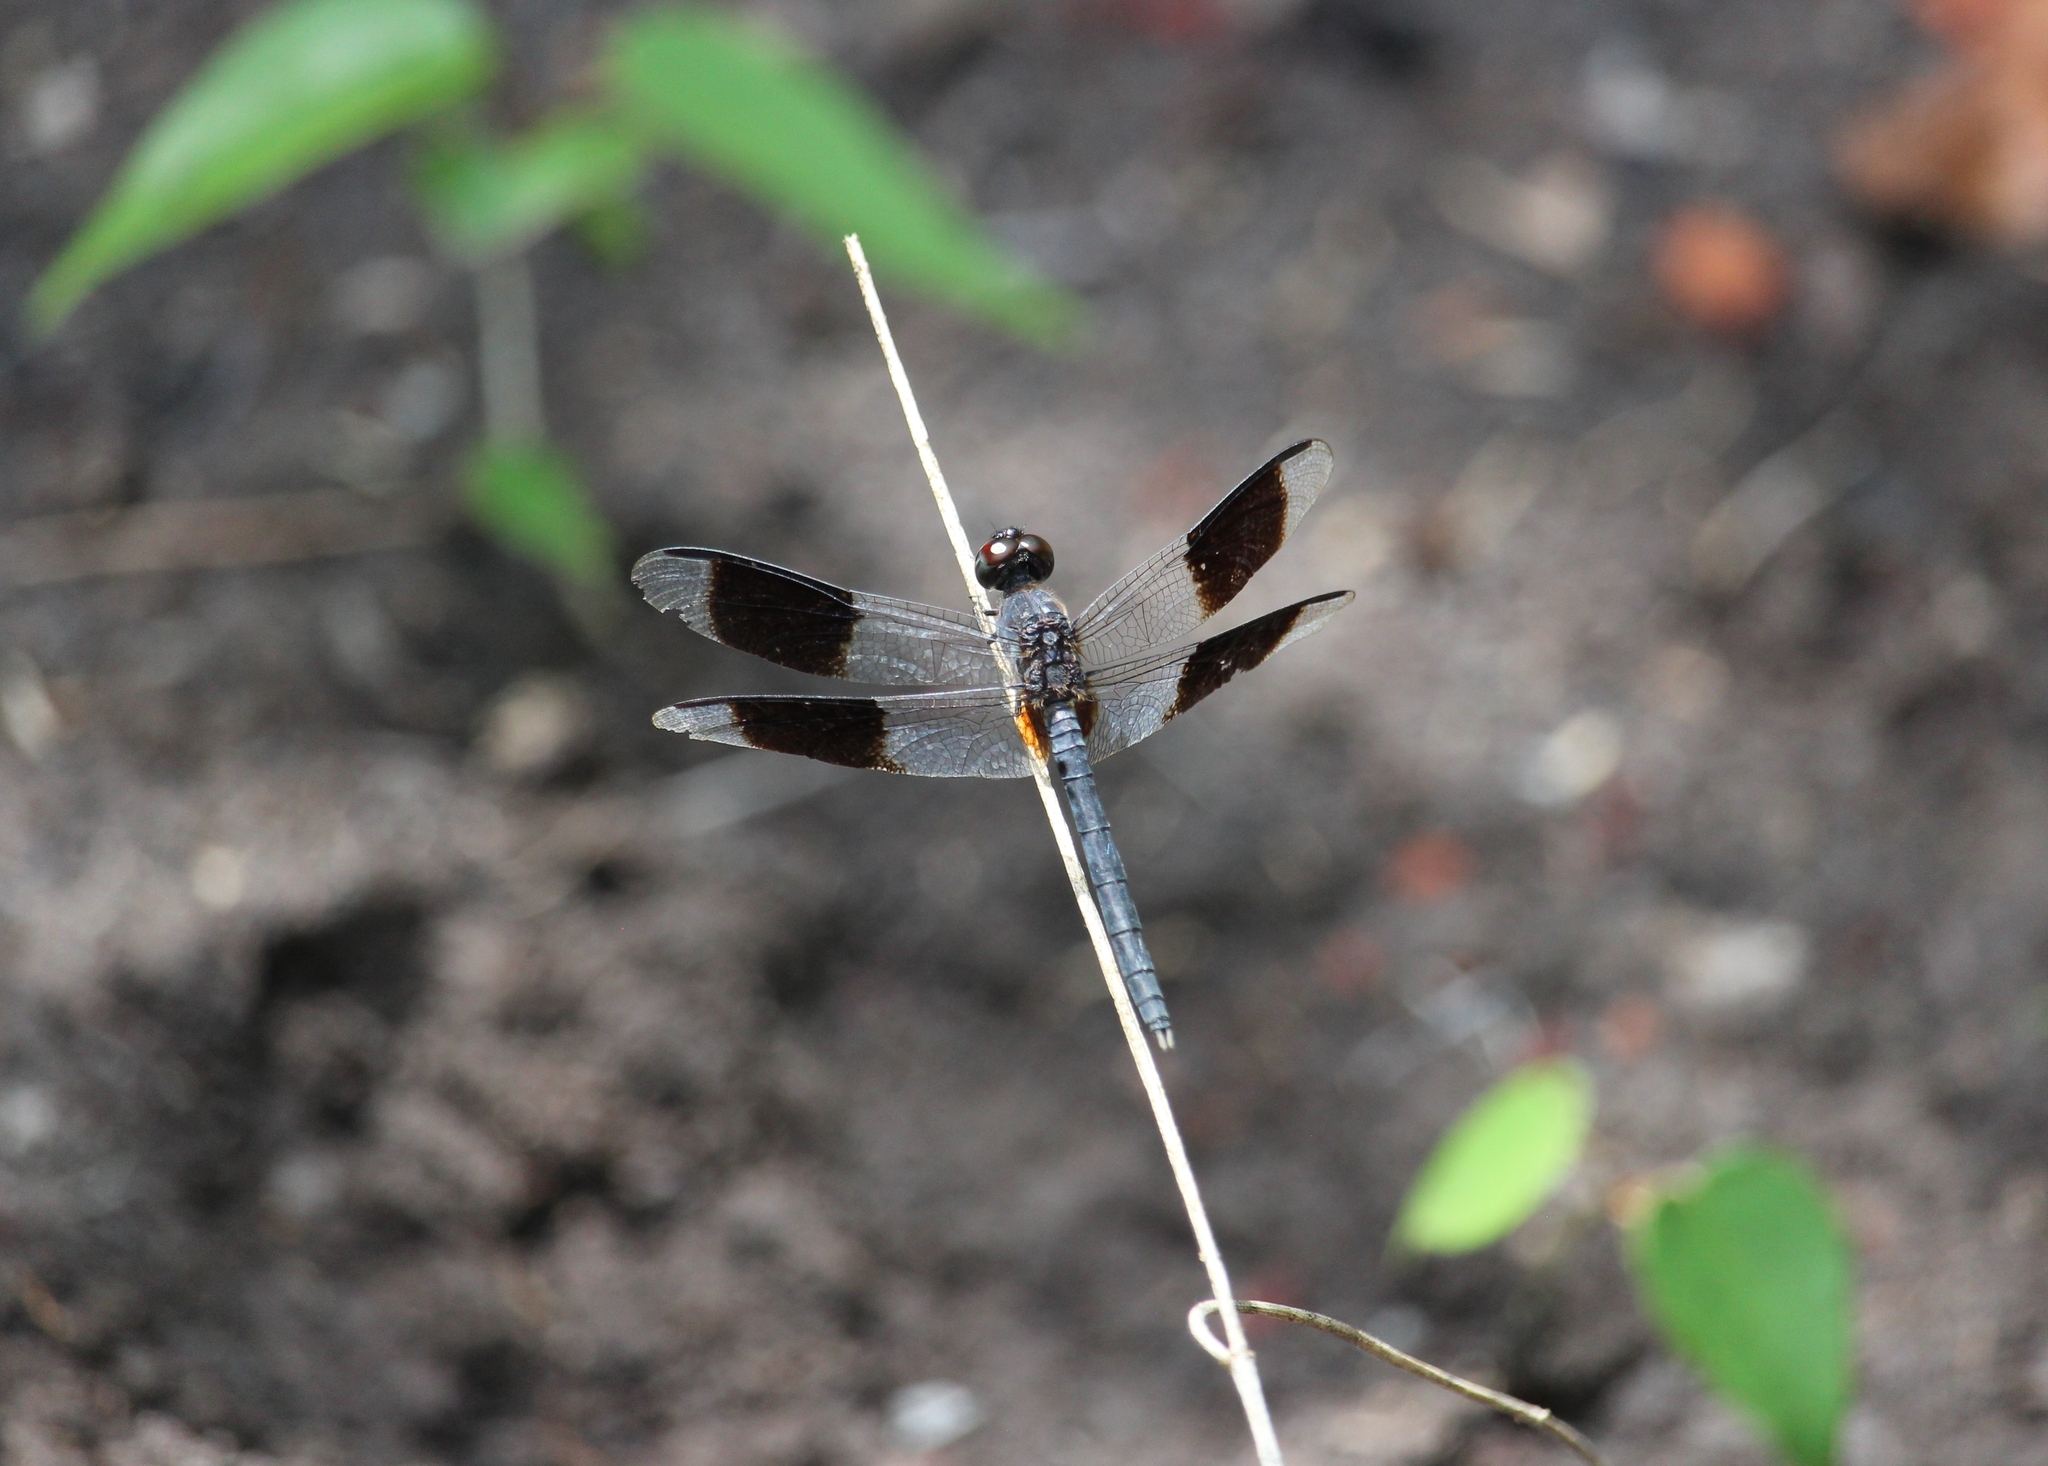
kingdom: Animalia
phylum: Arthropoda
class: Insecta
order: Odonata
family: Libellulidae
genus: Erythrodiplax
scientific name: Erythrodiplax umbrata
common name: Band-winged dragonlet
